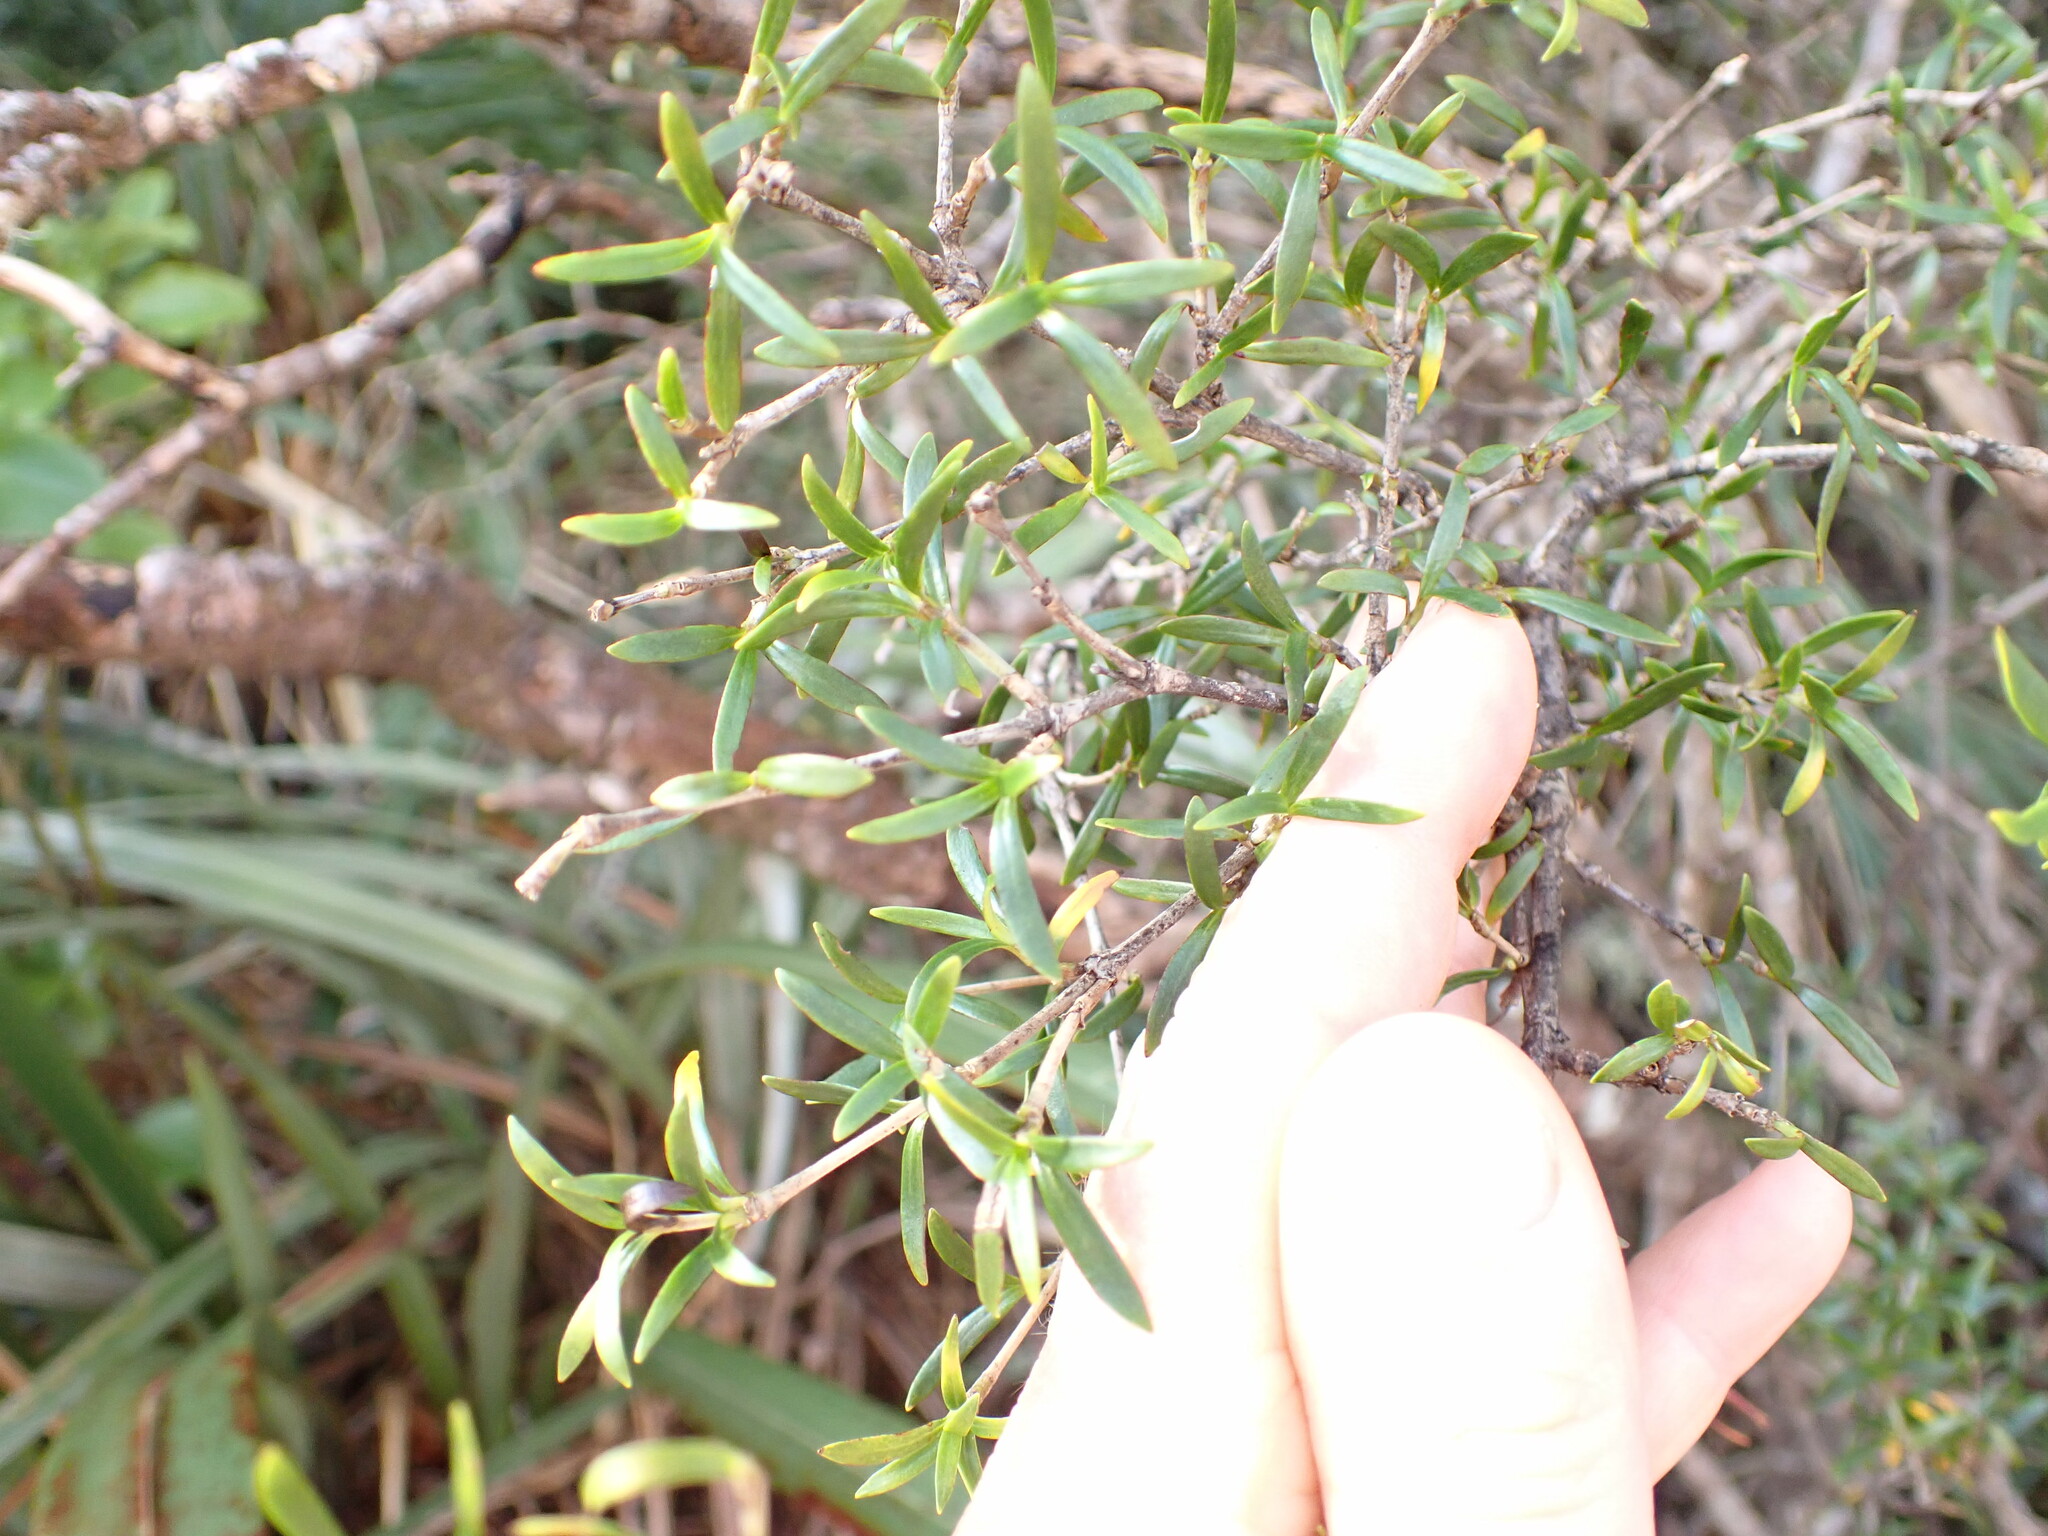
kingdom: Plantae
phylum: Tracheophyta
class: Magnoliopsida
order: Gentianales
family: Rubiaceae
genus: Coprosma
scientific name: Coprosma linariifolia
